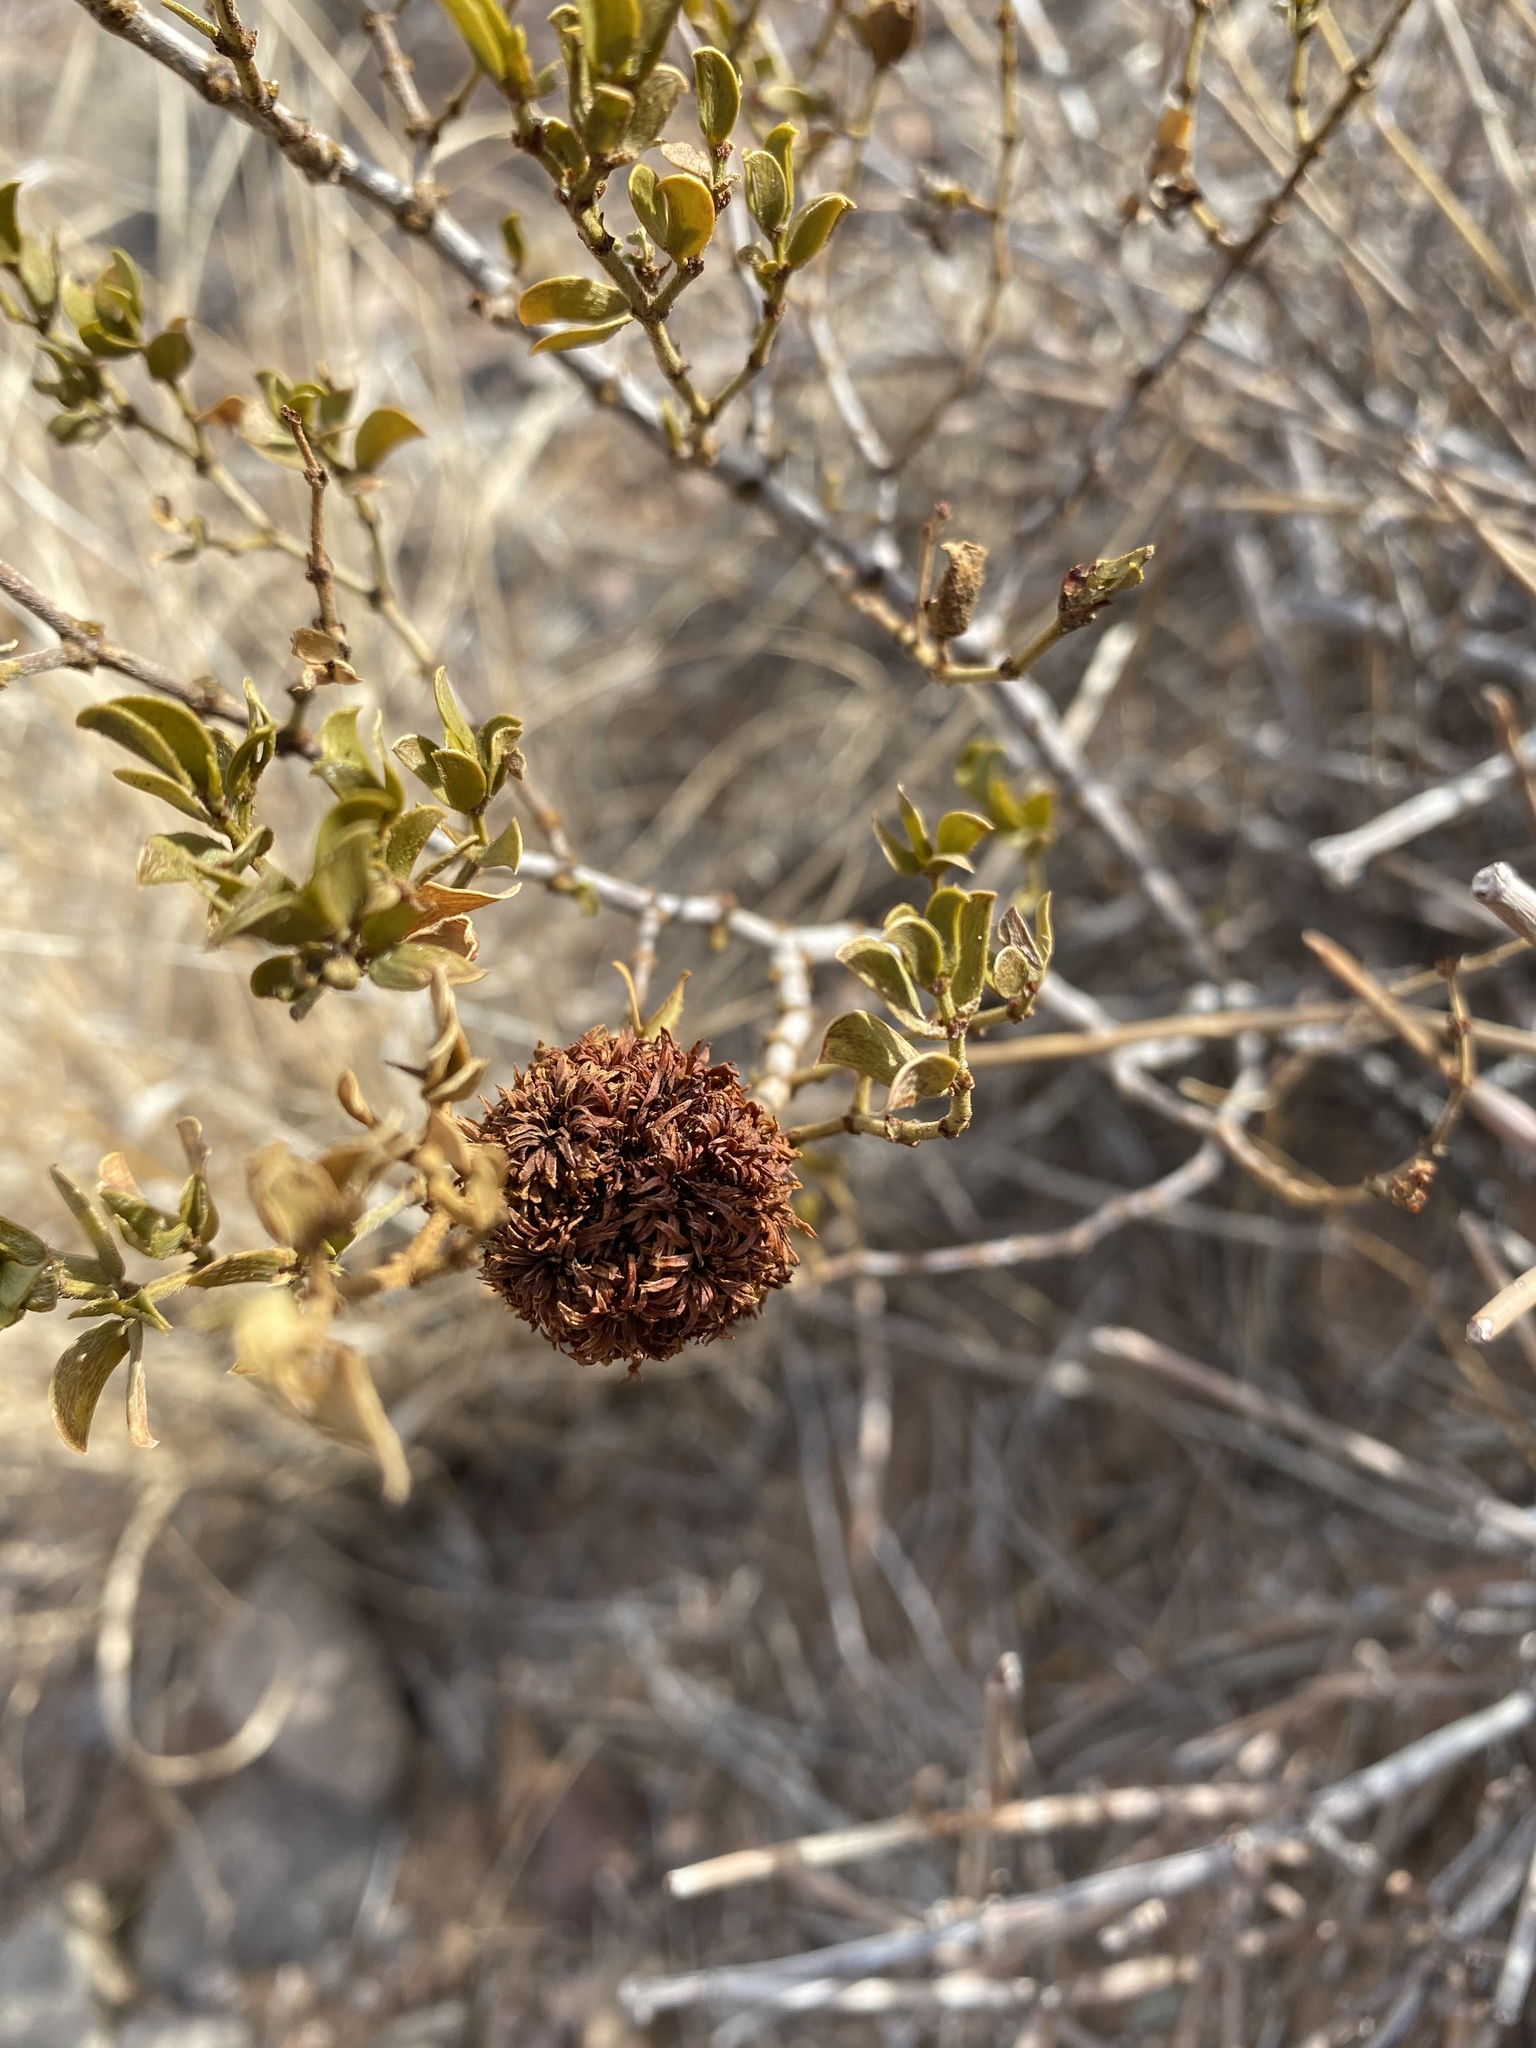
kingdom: Animalia
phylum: Arthropoda
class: Insecta
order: Diptera
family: Cecidomyiidae
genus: Asphondylia
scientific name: Asphondylia auripila
